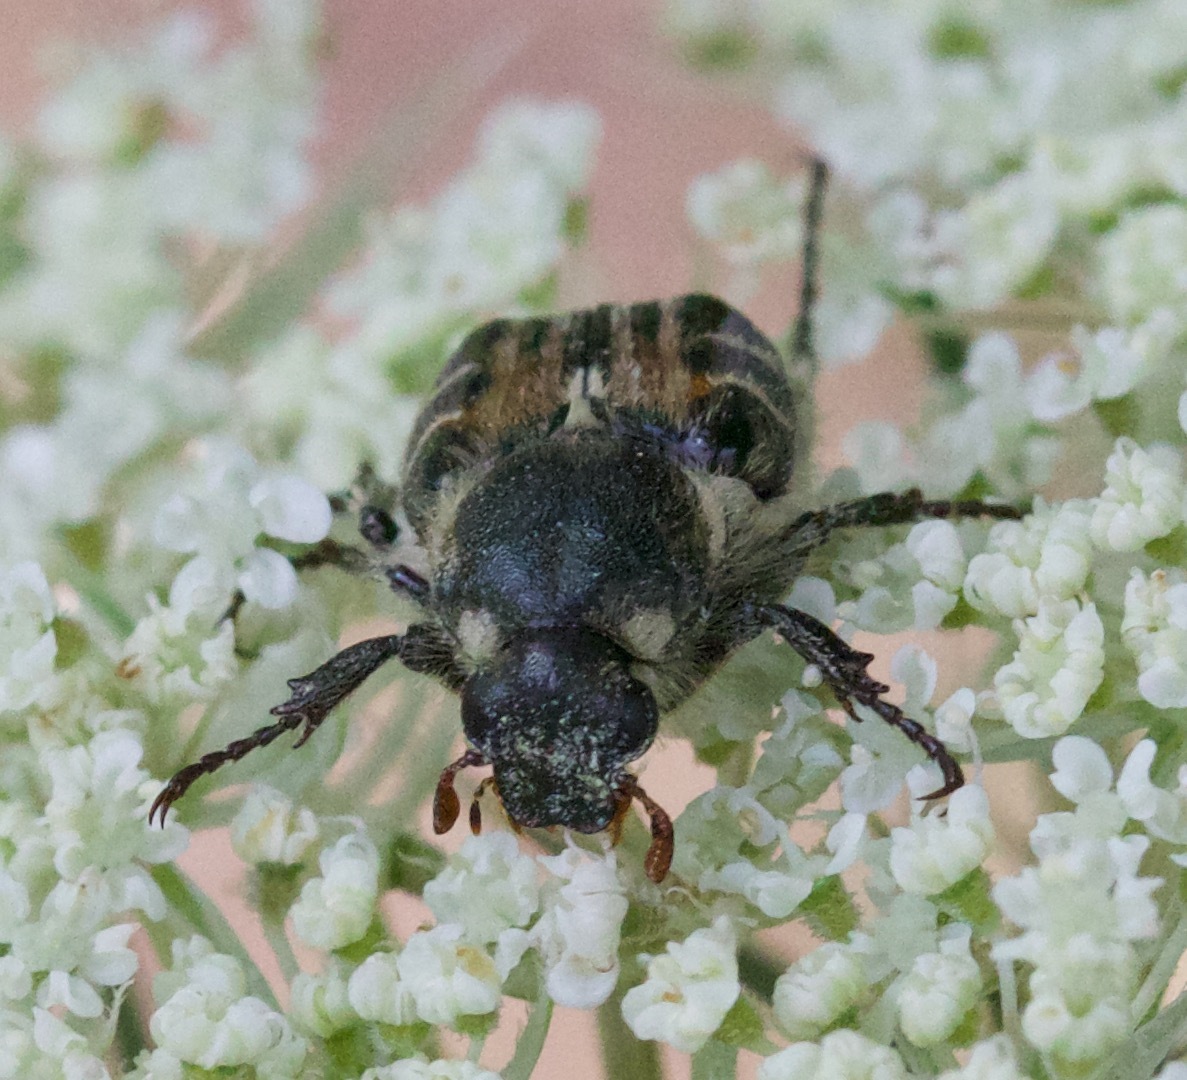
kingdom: Animalia
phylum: Arthropoda
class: Insecta
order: Coleoptera
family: Scarabaeidae
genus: Trichiotinus
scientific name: Trichiotinus assimilis
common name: Bee-mimic beetle
